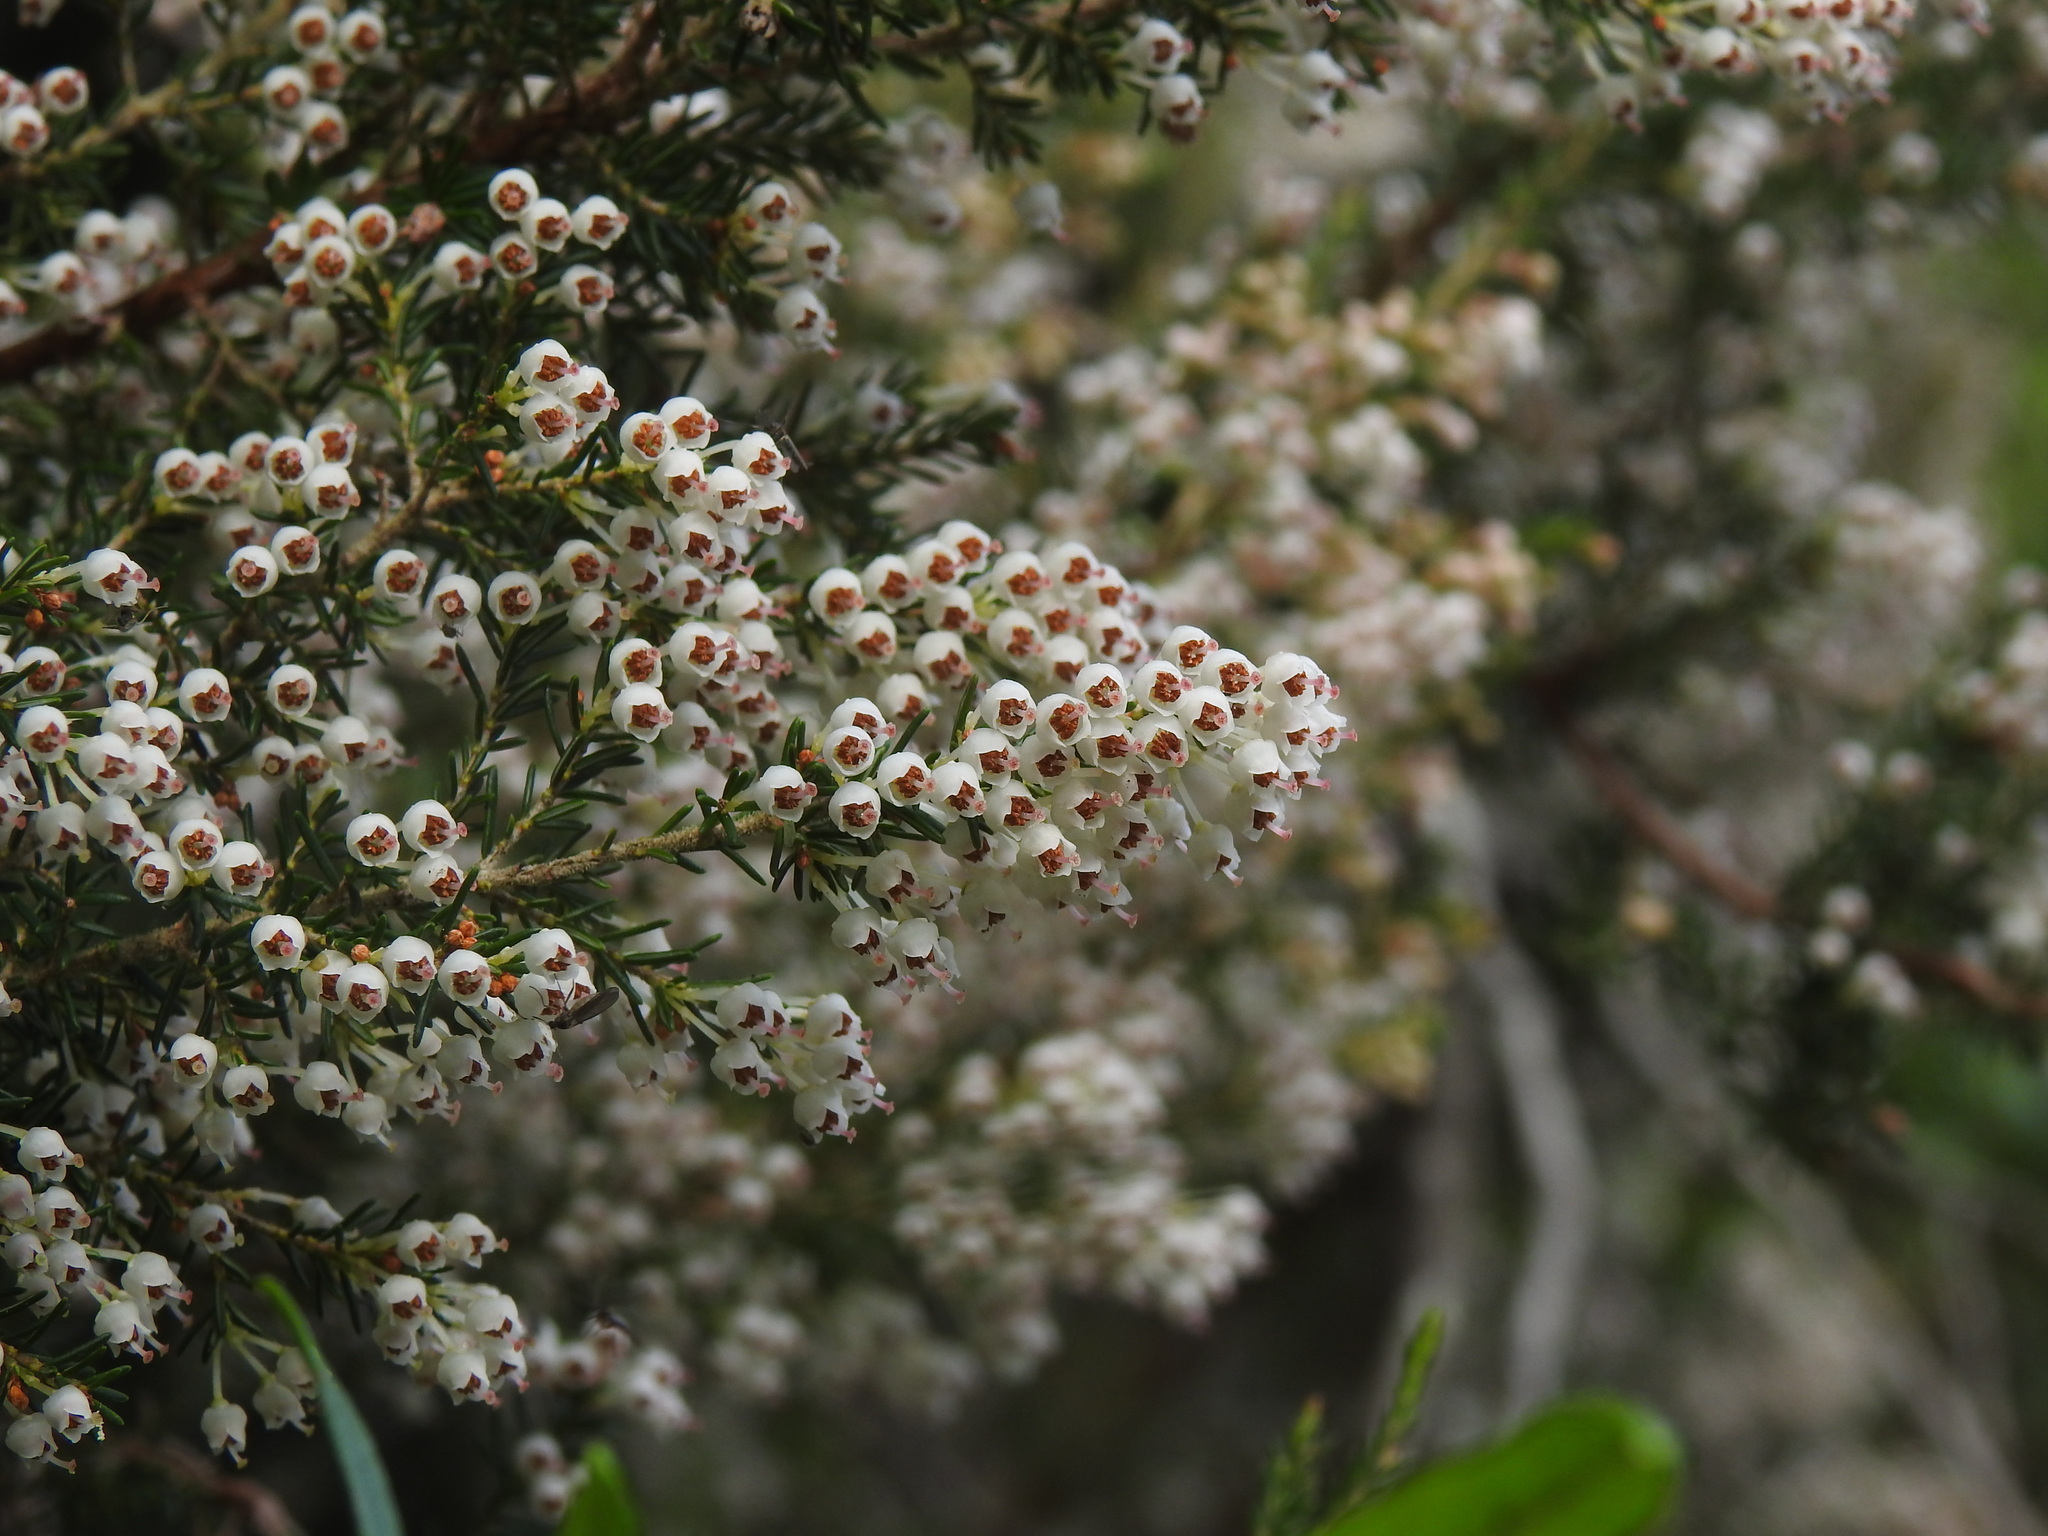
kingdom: Plantae
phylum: Tracheophyta
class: Magnoliopsida
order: Ericales
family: Ericaceae
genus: Erica
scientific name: Erica arborea
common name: Tree heath
